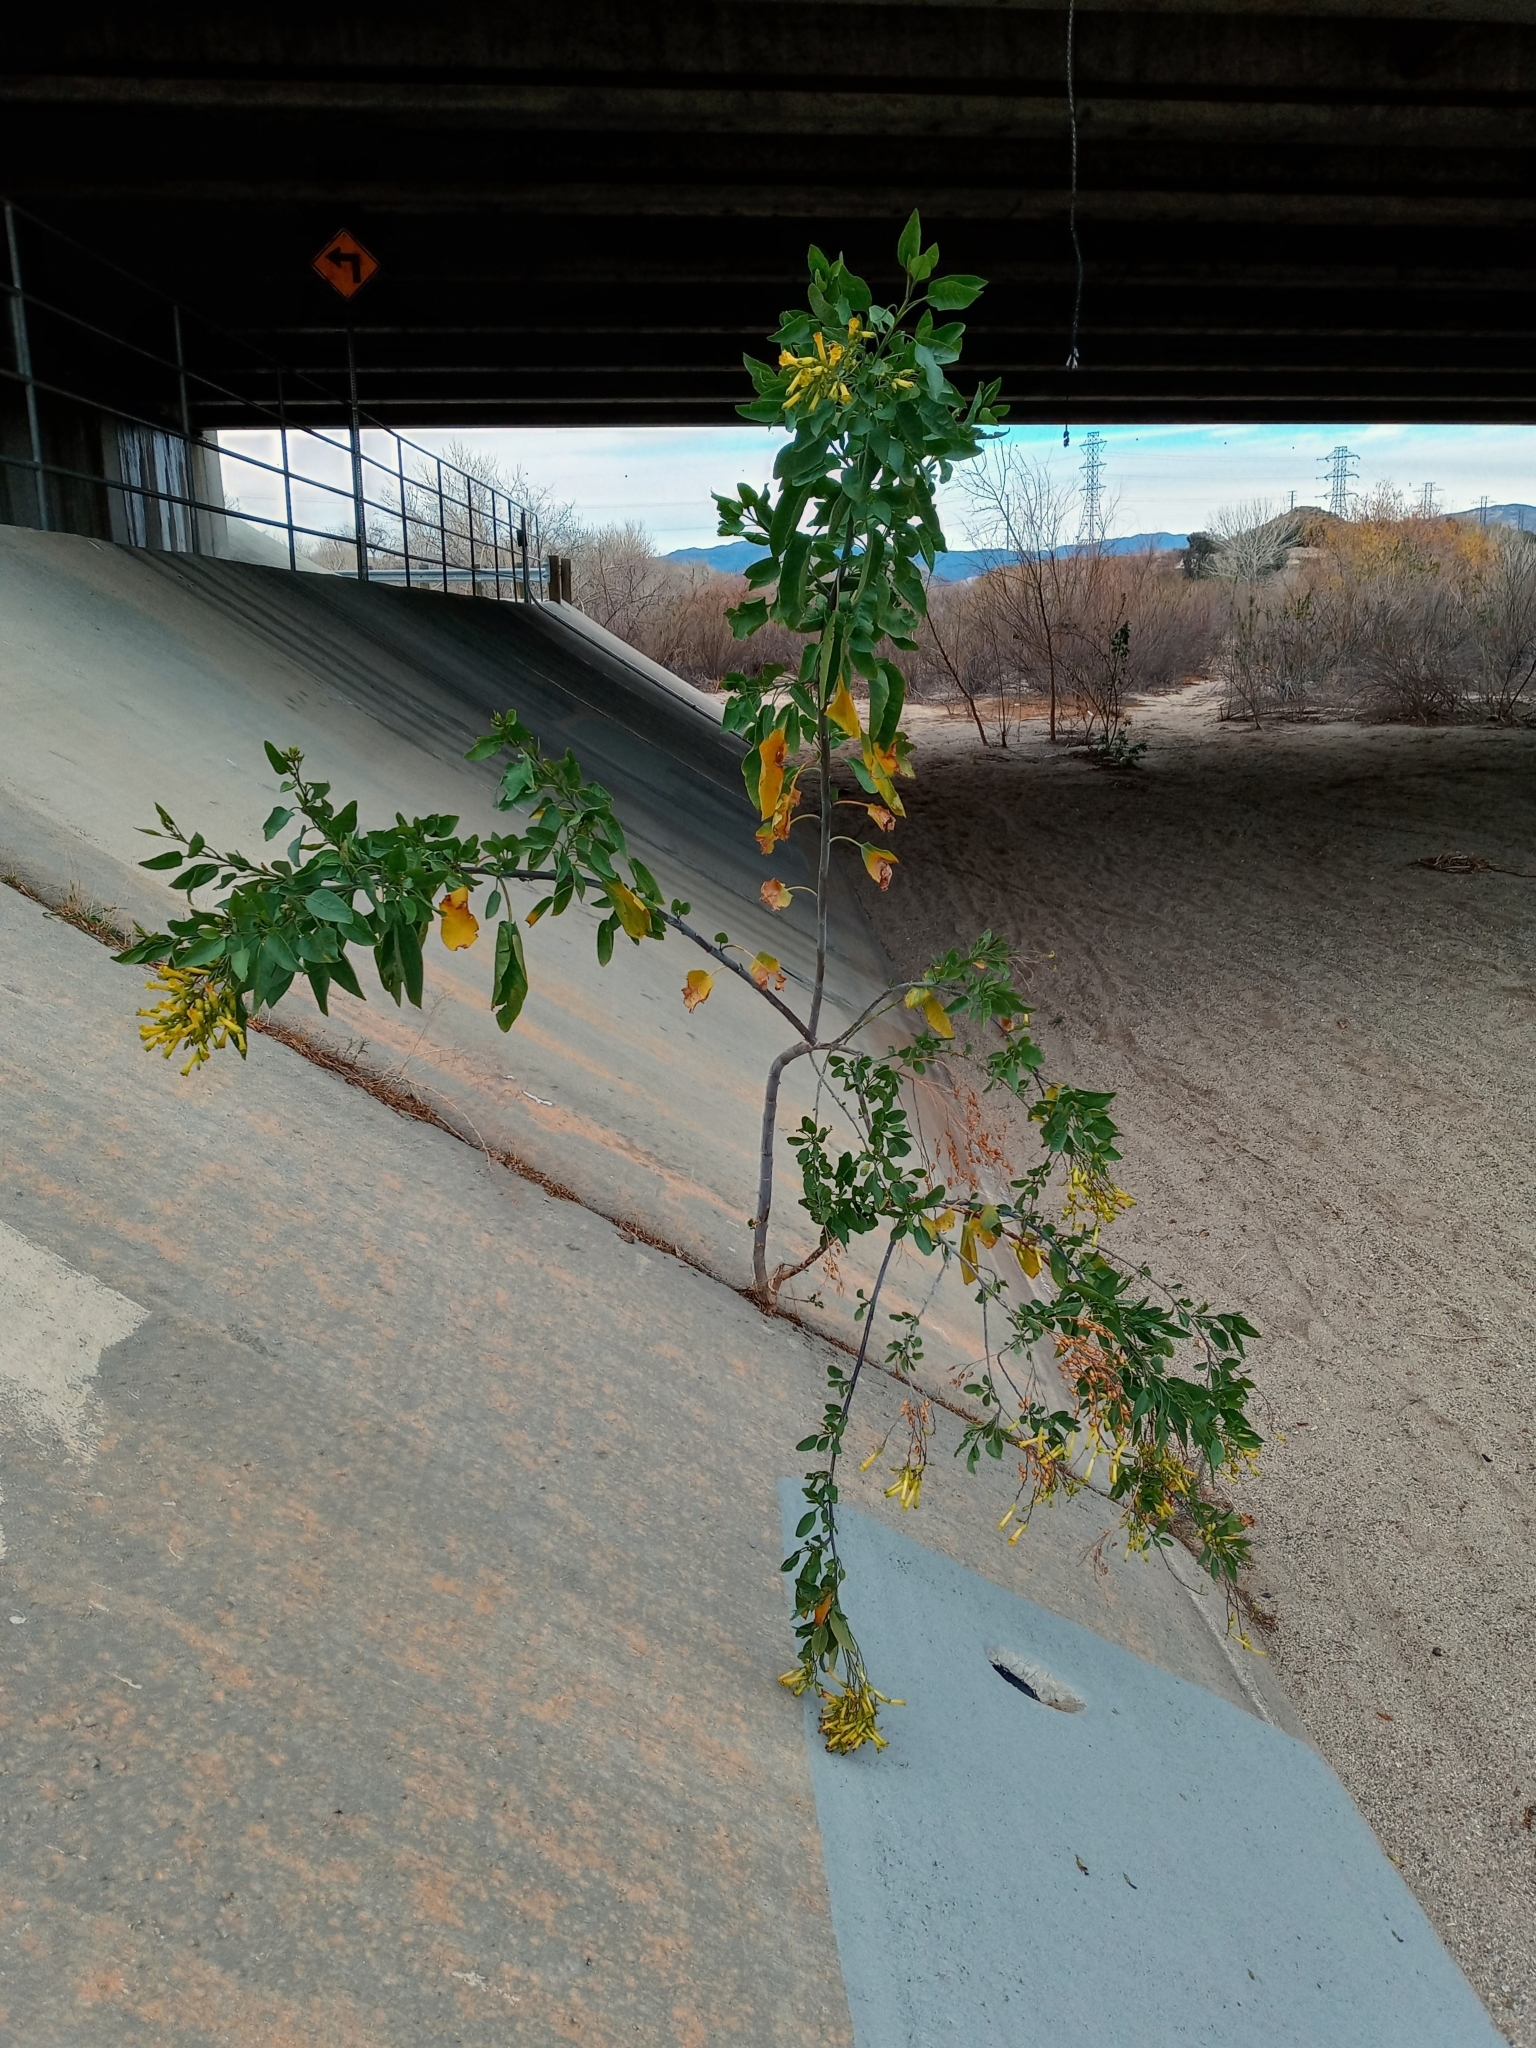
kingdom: Plantae
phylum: Tracheophyta
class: Magnoliopsida
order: Solanales
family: Solanaceae
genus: Nicotiana
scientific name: Nicotiana glauca
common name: Tree tobacco
